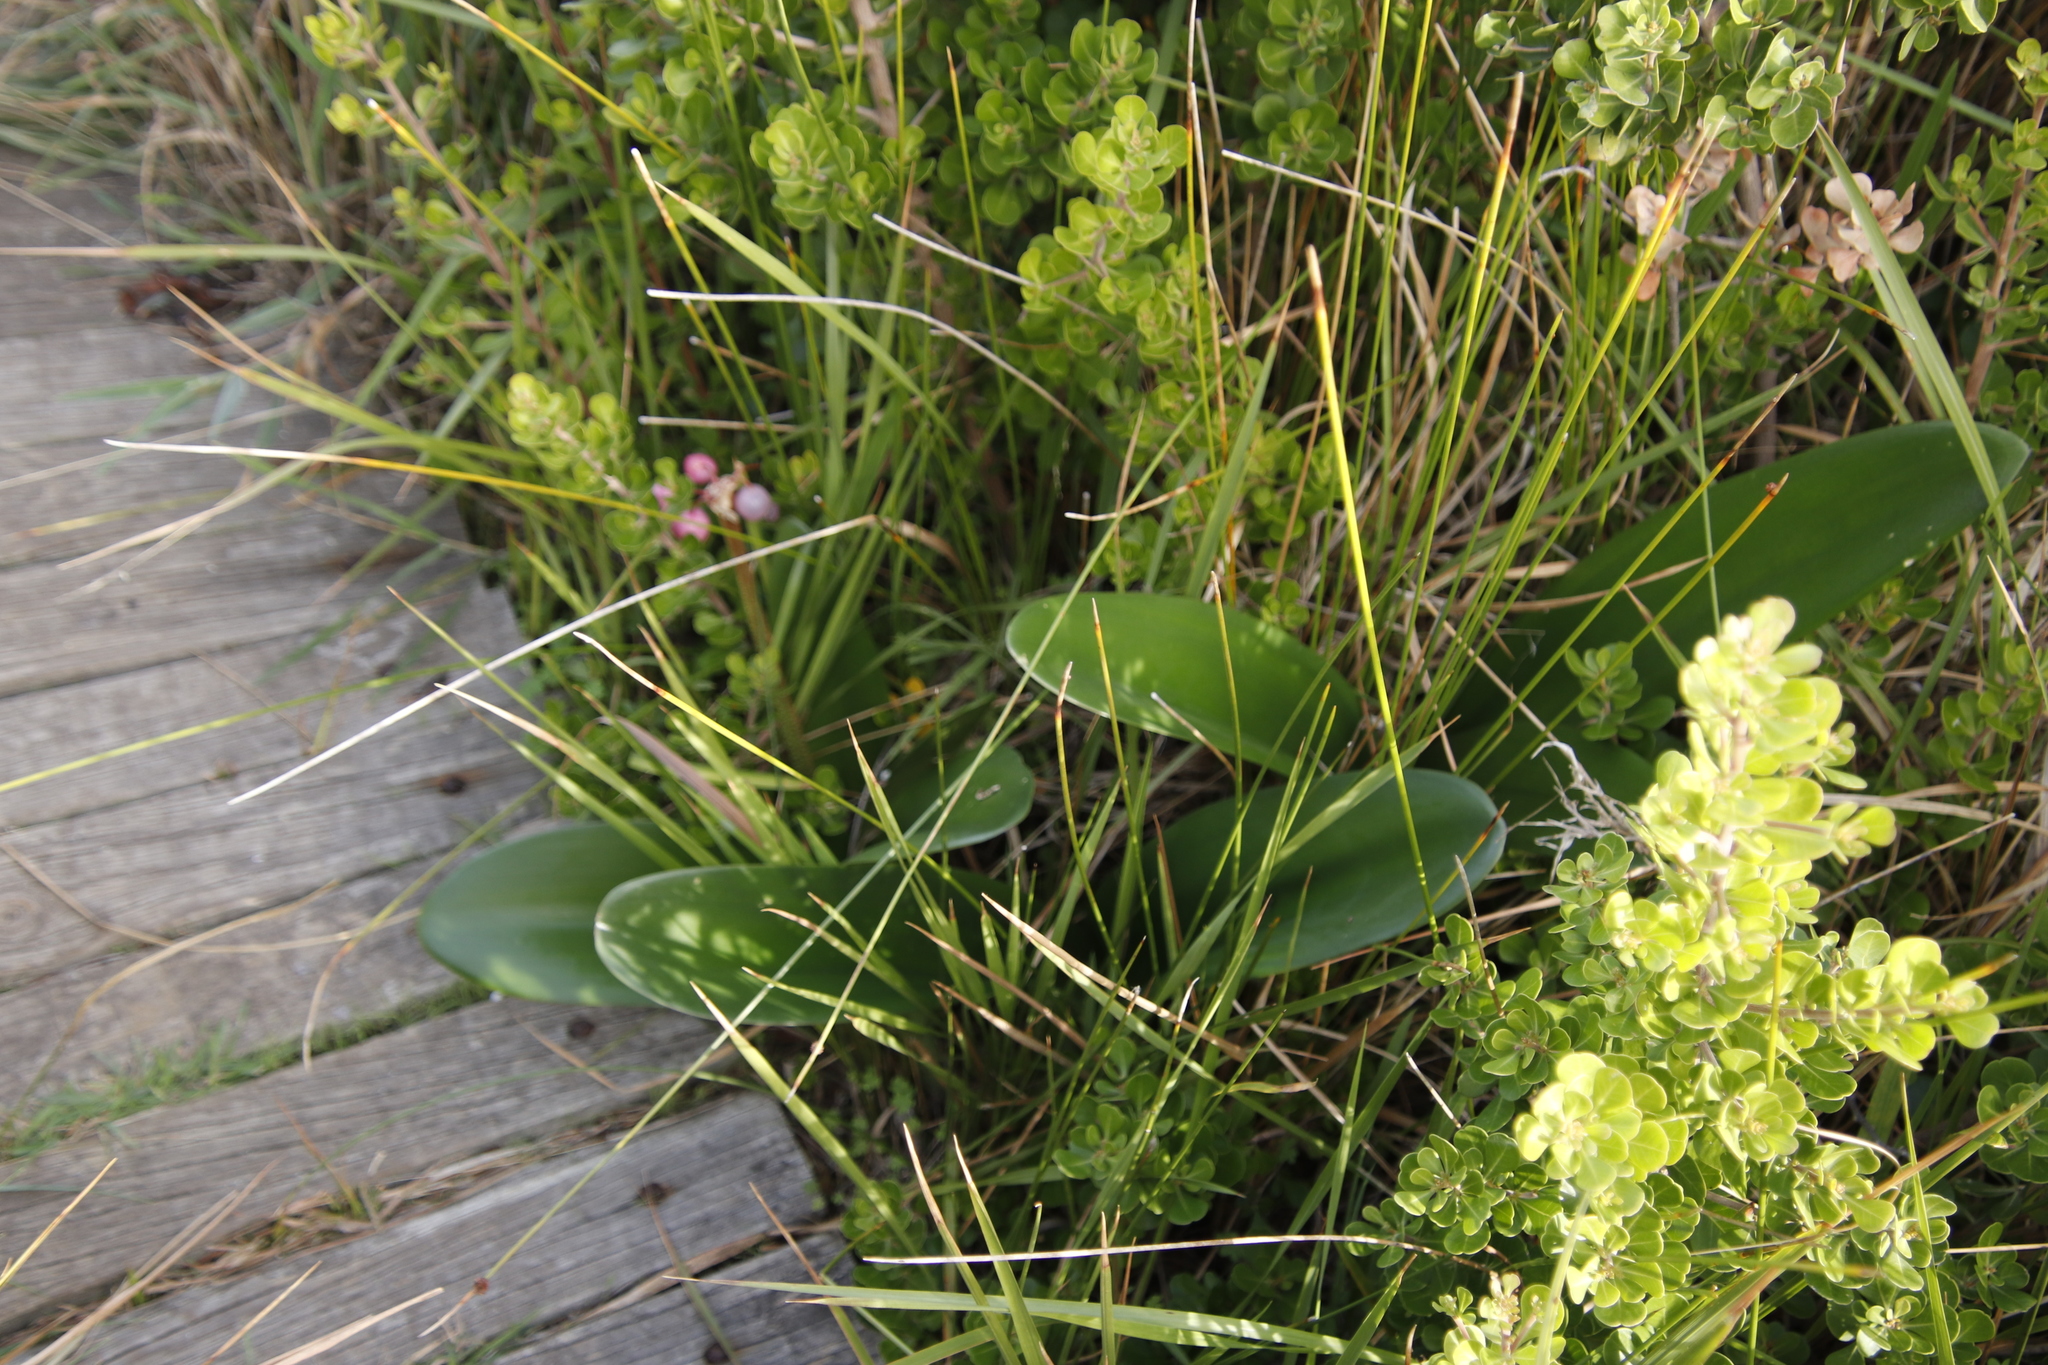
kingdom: Plantae
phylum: Tracheophyta
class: Liliopsida
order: Asparagales
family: Amaryllidaceae
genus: Haemanthus
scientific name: Haemanthus coccineus
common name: Cape-tulip
